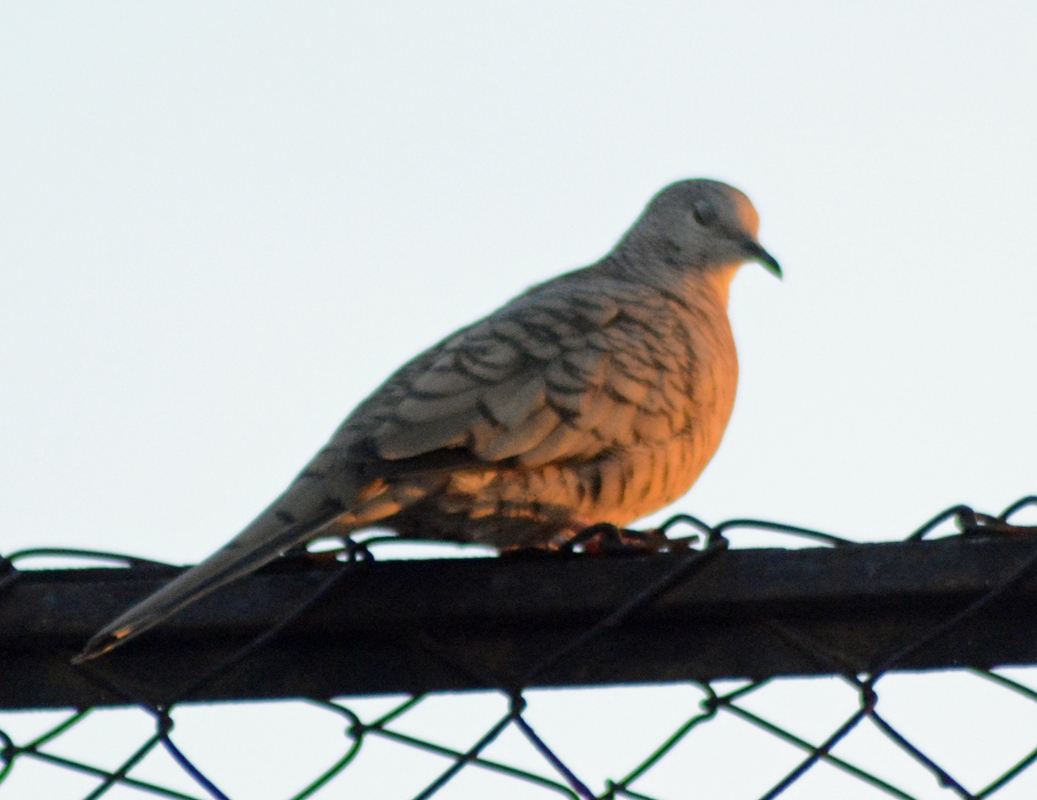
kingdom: Animalia
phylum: Chordata
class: Aves
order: Columbiformes
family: Columbidae
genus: Columbina
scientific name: Columbina inca
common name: Inca dove
